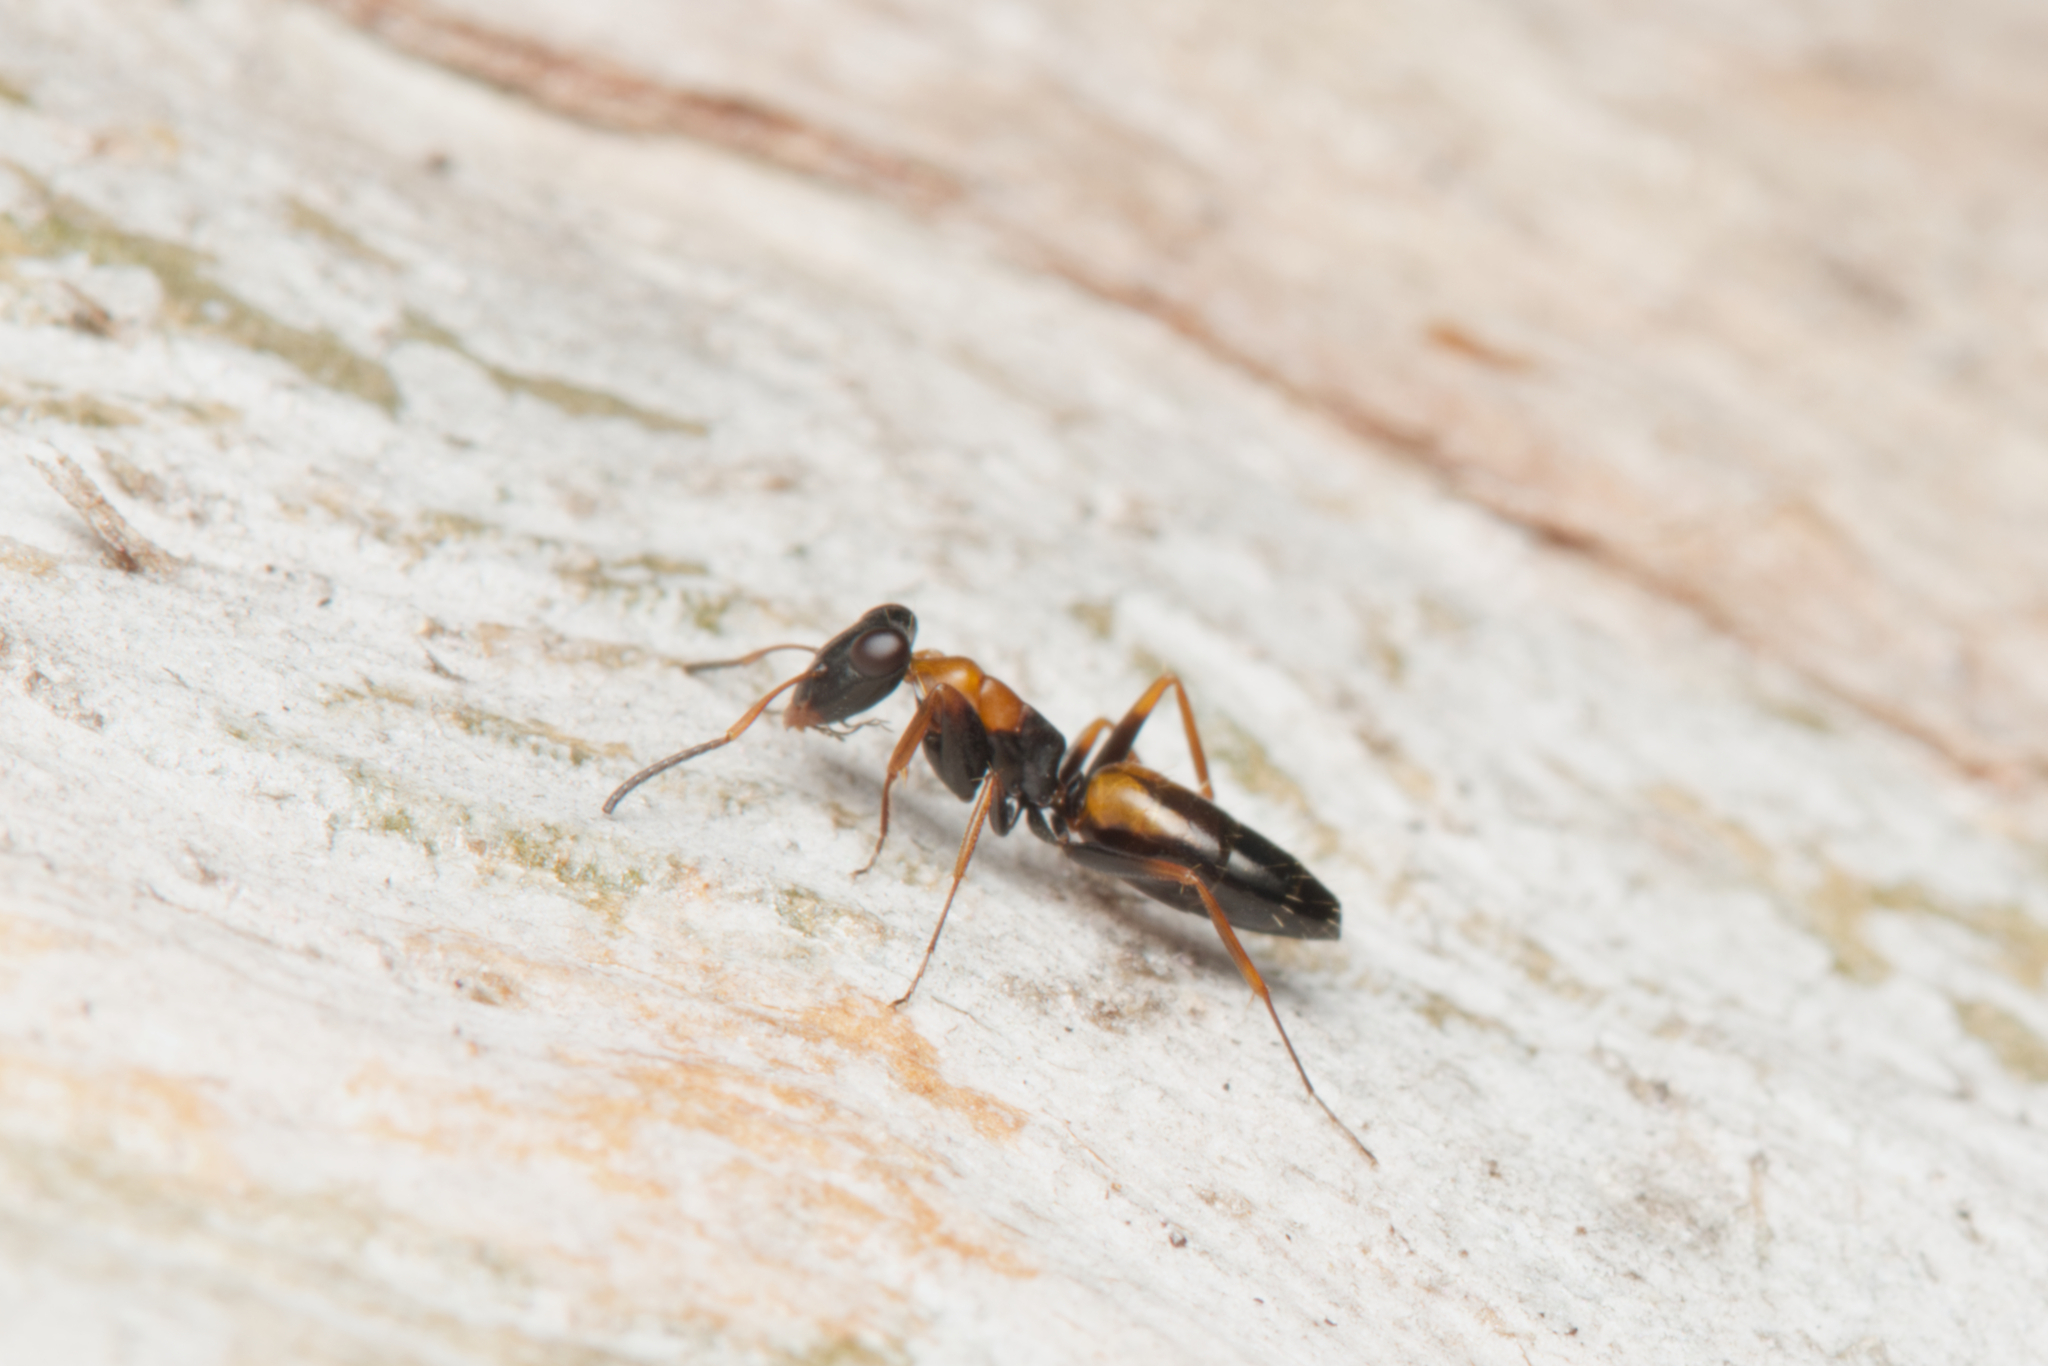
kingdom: Animalia
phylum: Arthropoda
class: Insecta
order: Hymenoptera
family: Formicidae
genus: Opisthopsis
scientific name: Opisthopsis pictus
